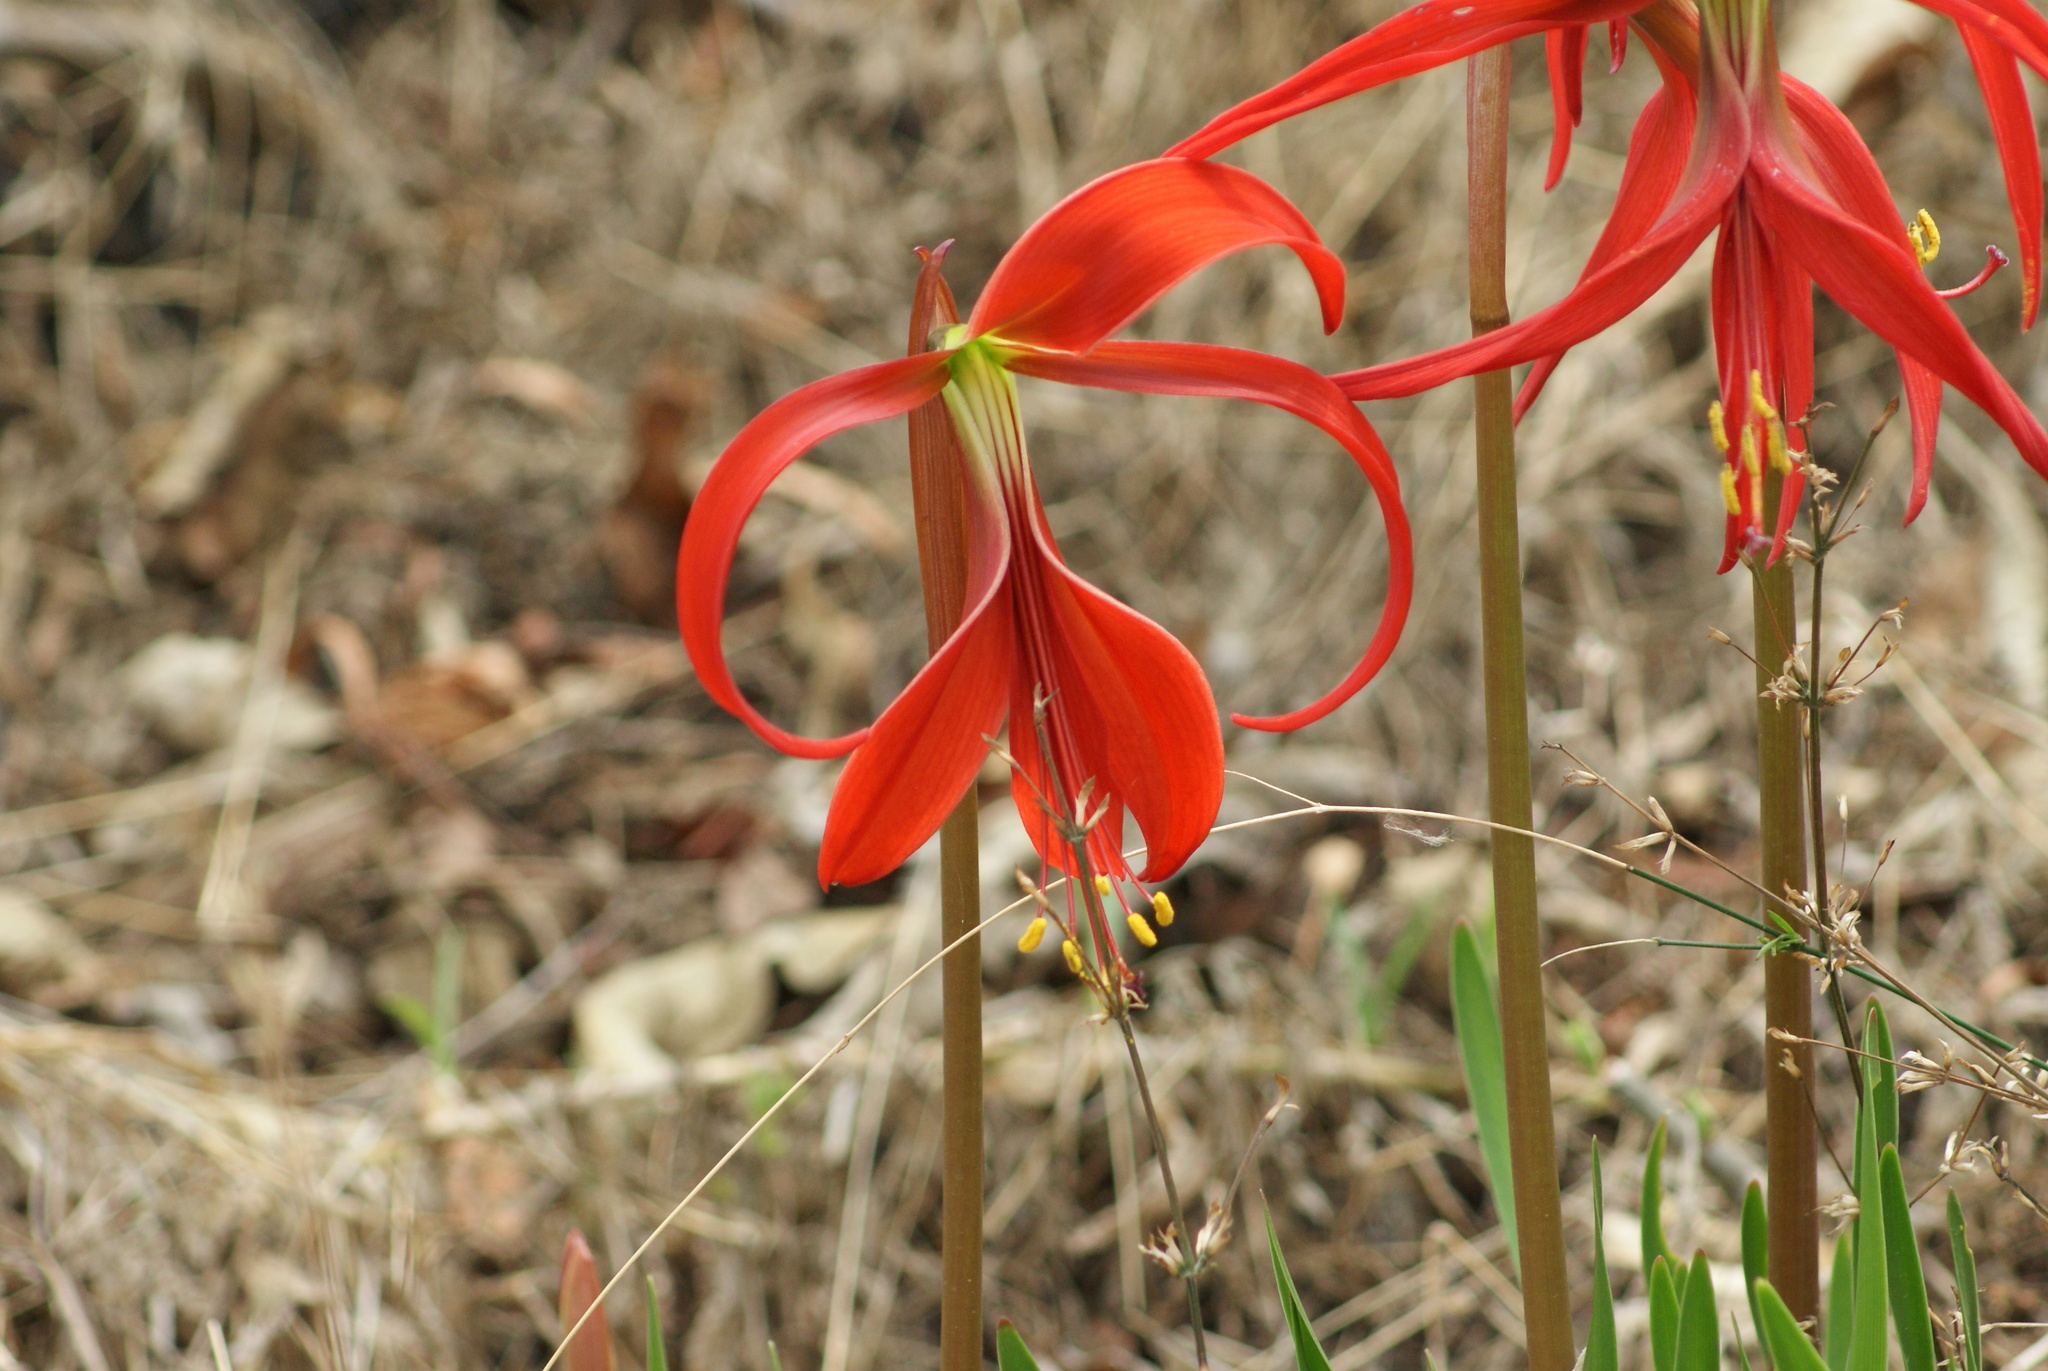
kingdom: Plantae
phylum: Tracheophyta
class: Liliopsida
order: Asparagales
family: Amaryllidaceae
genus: Sprekelia
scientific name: Sprekelia formosissima
